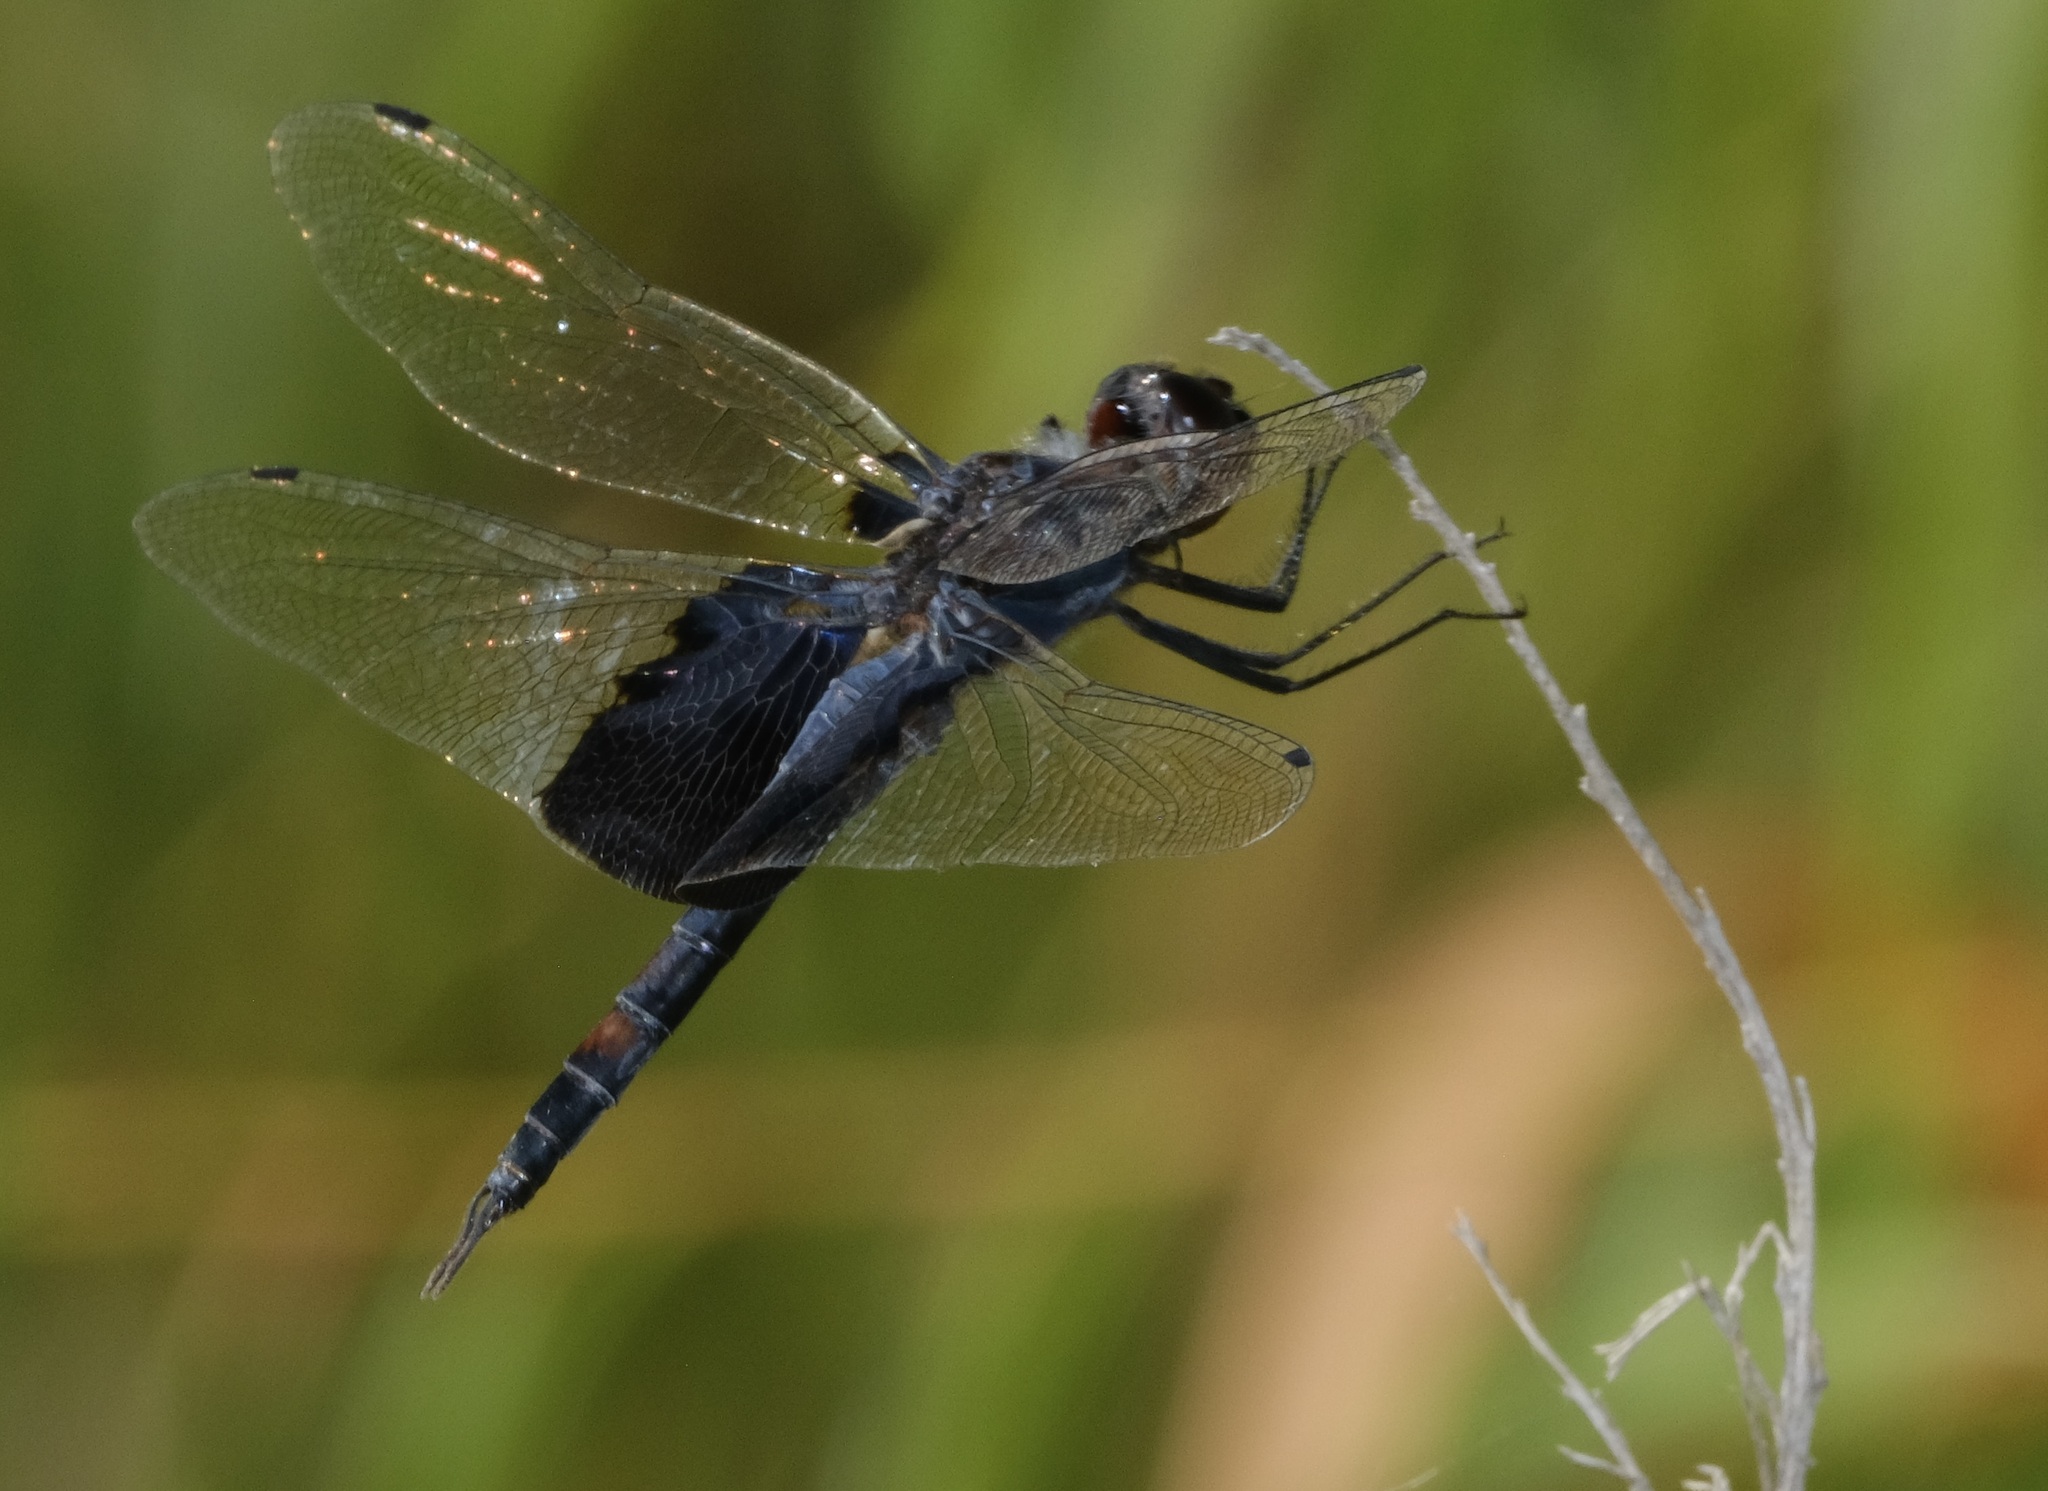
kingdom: Animalia
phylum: Arthropoda
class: Insecta
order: Odonata
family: Libellulidae
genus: Tramea
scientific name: Tramea lacerata
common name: Black saddlebags
